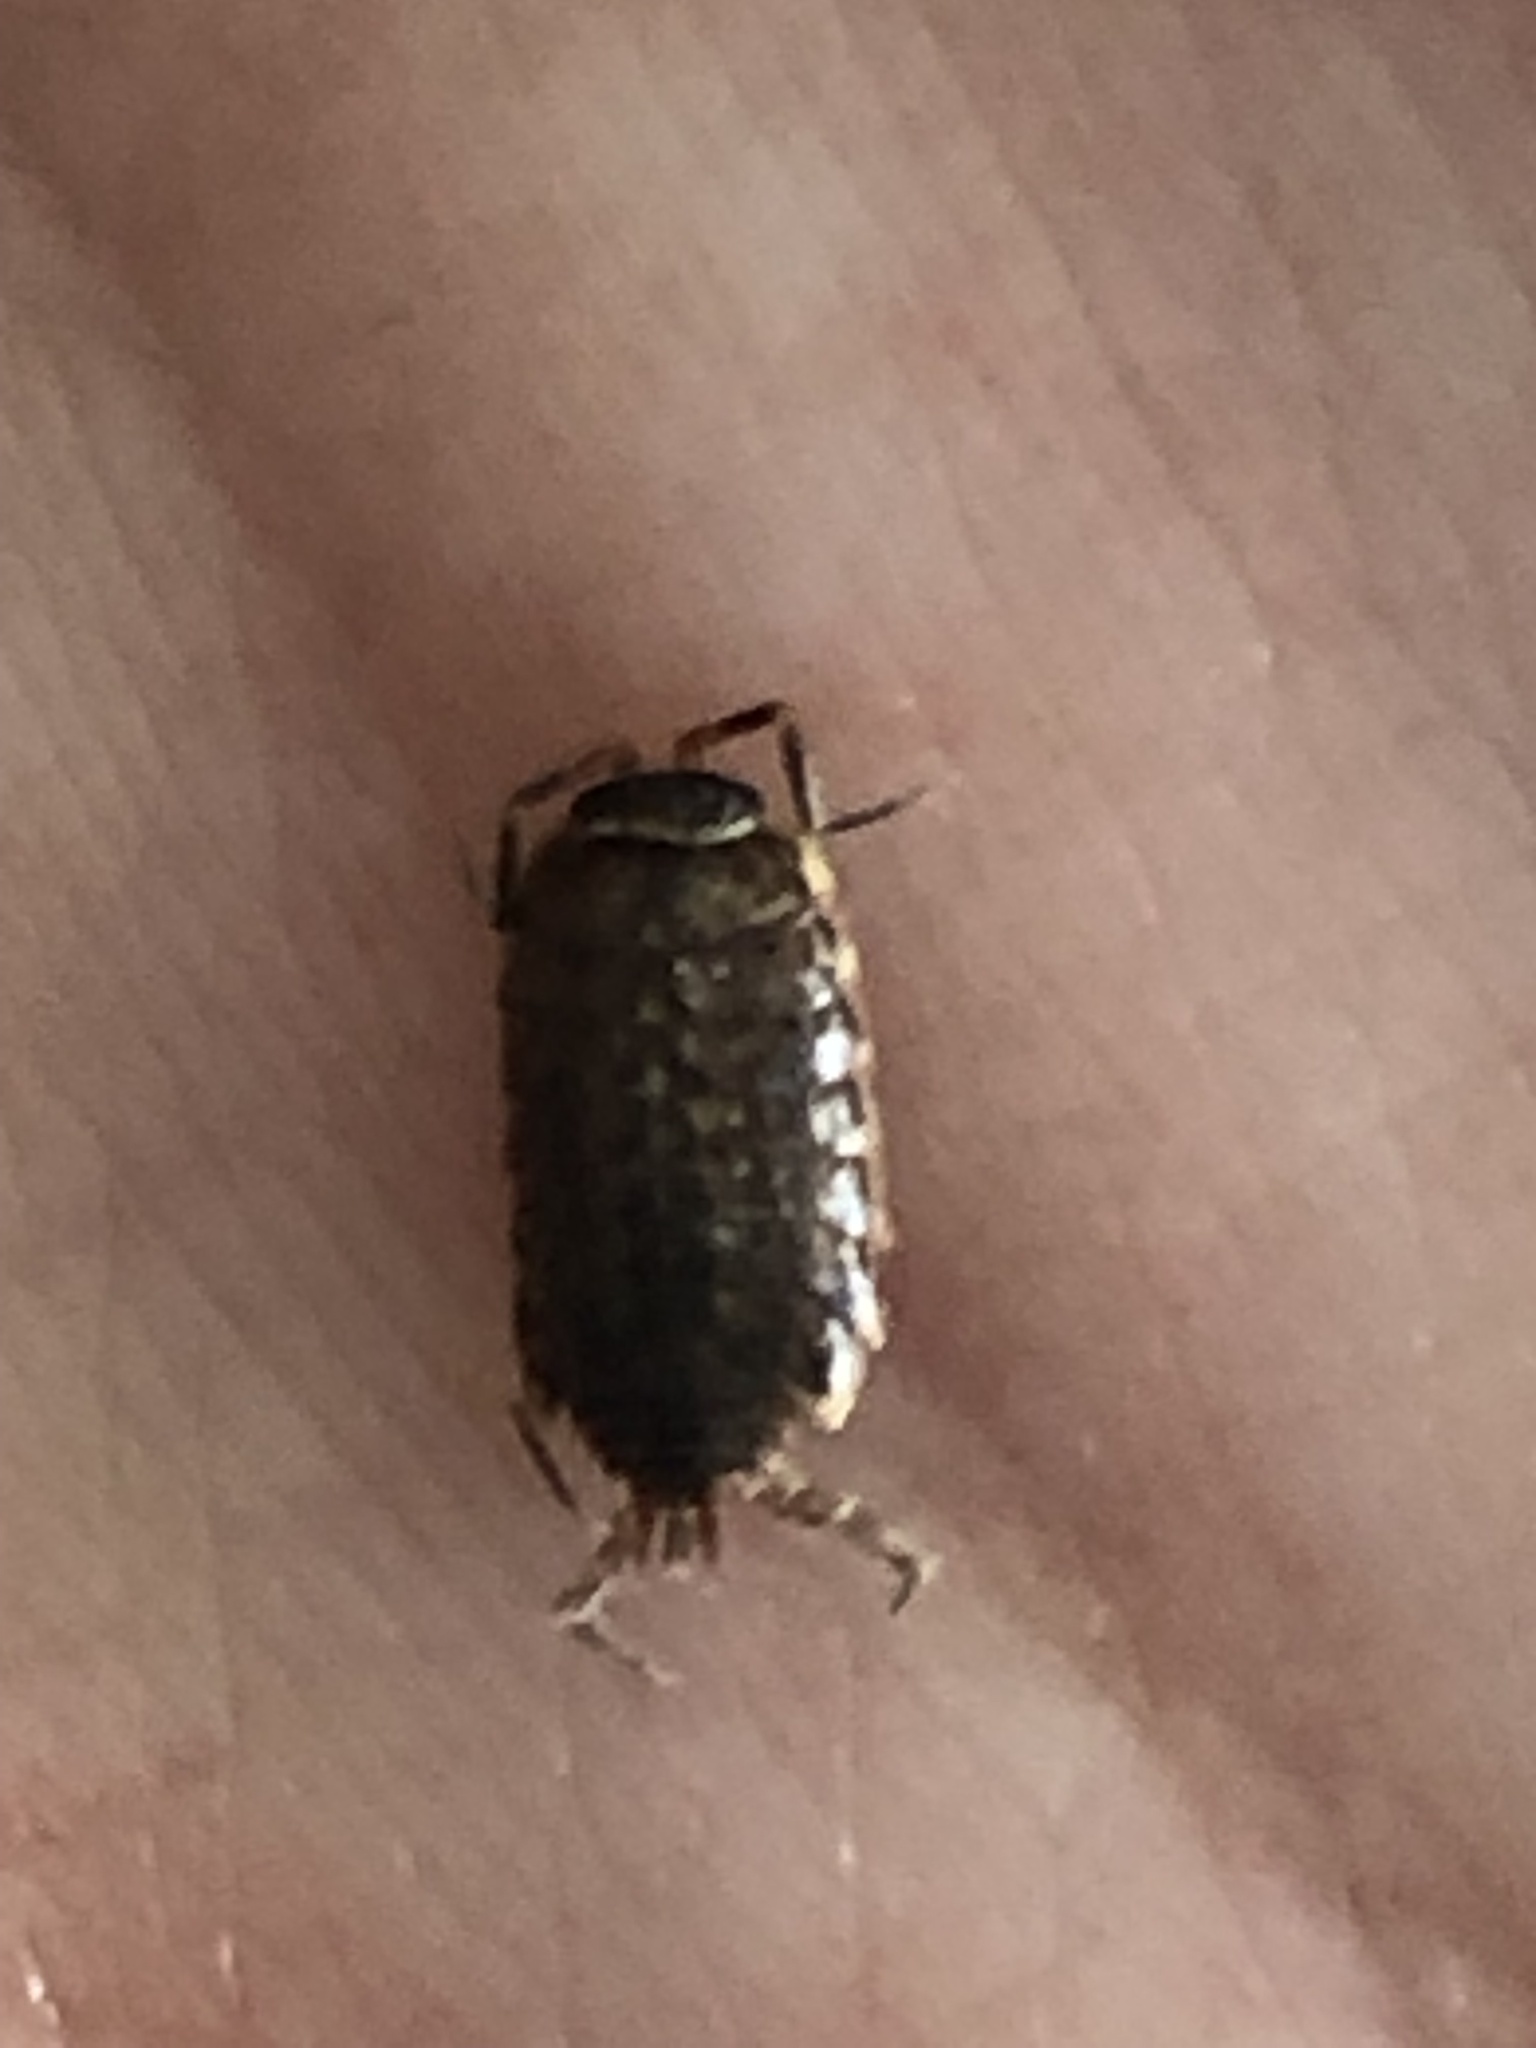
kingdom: Animalia
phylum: Arthropoda
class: Malacostraca
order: Isopoda
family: Philosciidae
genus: Philoscia
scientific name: Philoscia muscorum
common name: Common striped woodlouse
